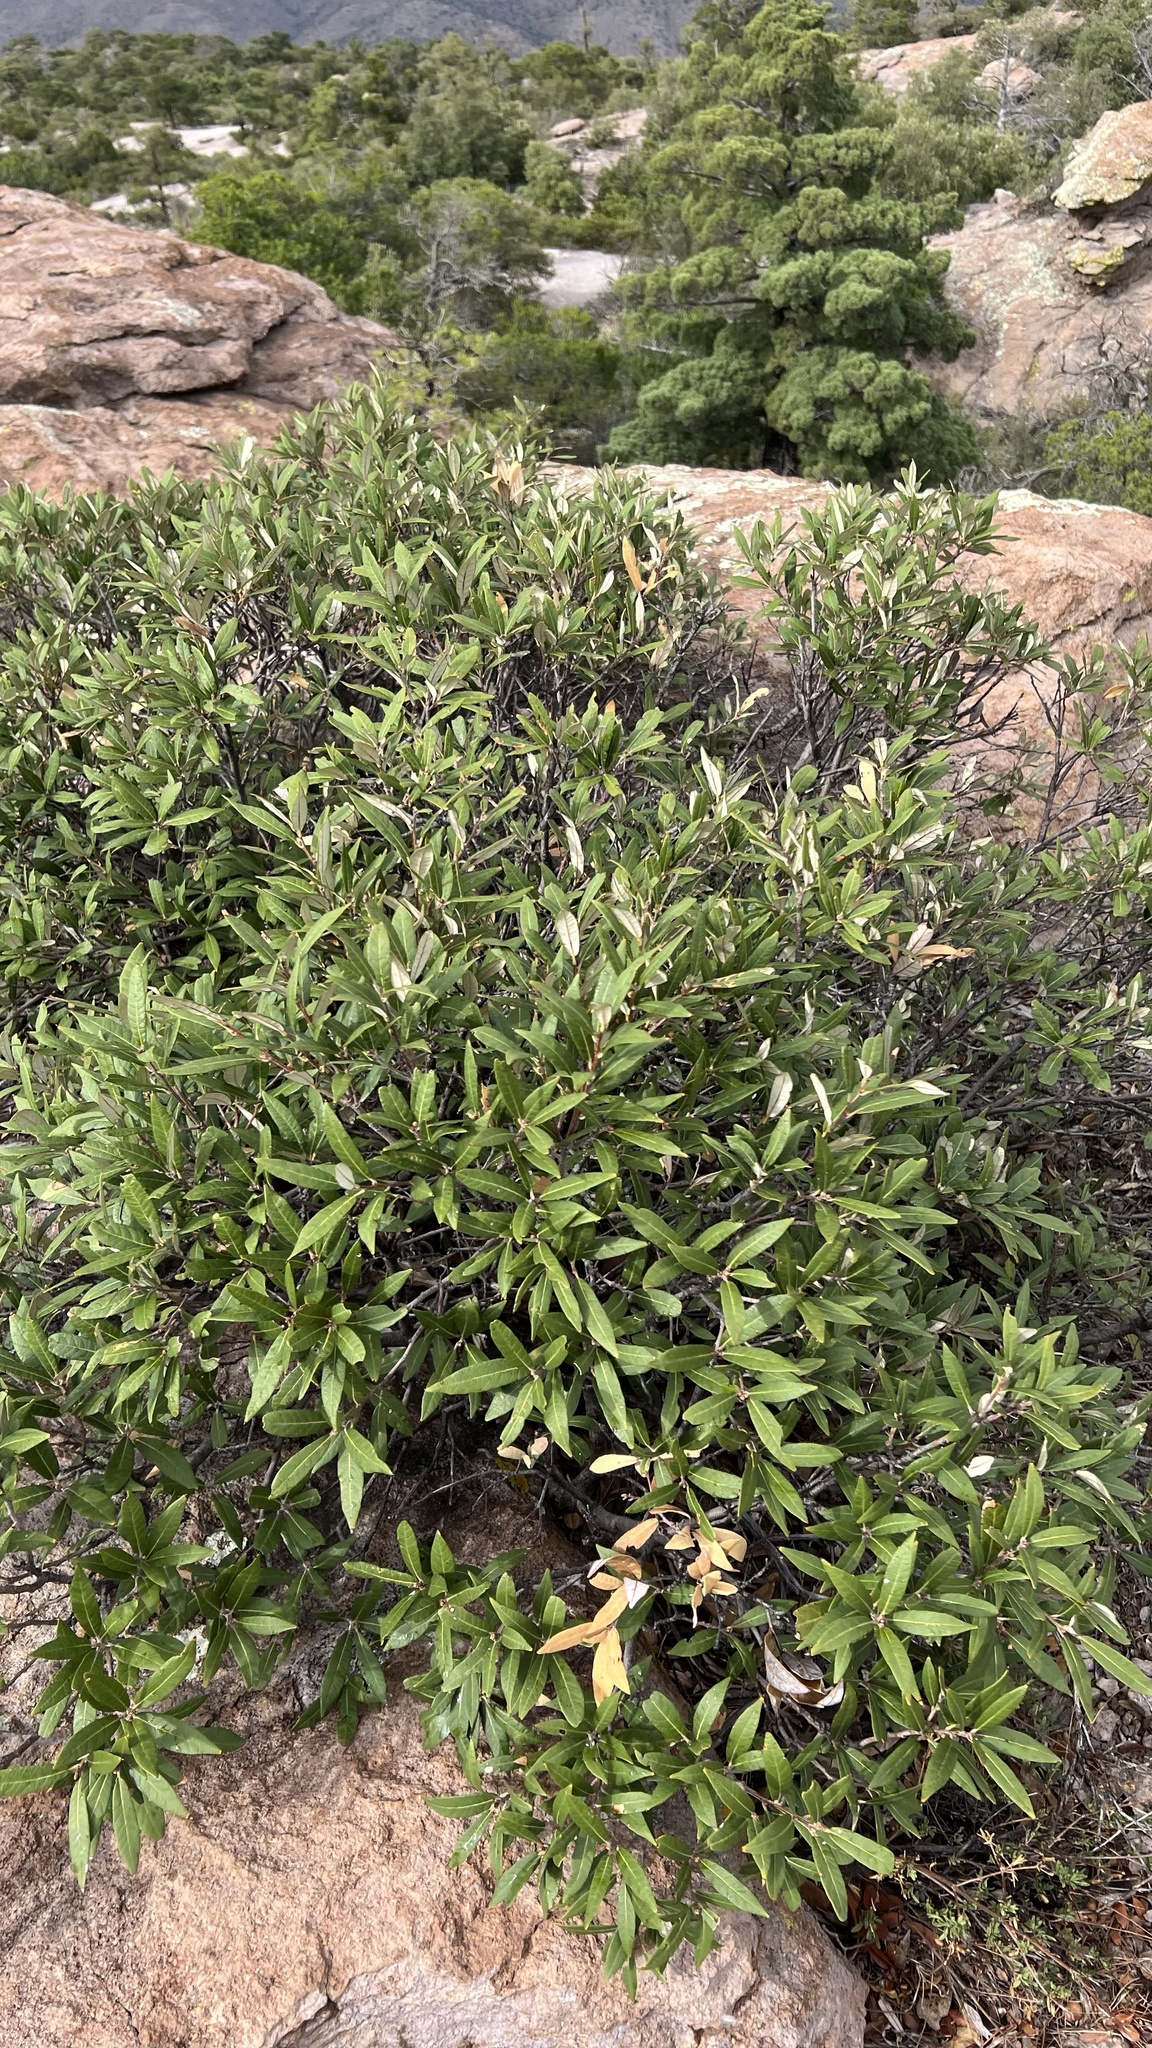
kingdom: Plantae
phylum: Tracheophyta
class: Magnoliopsida
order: Fagales
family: Fagaceae
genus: Quercus
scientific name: Quercus hypoleucoides
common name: Silverleaf oak
